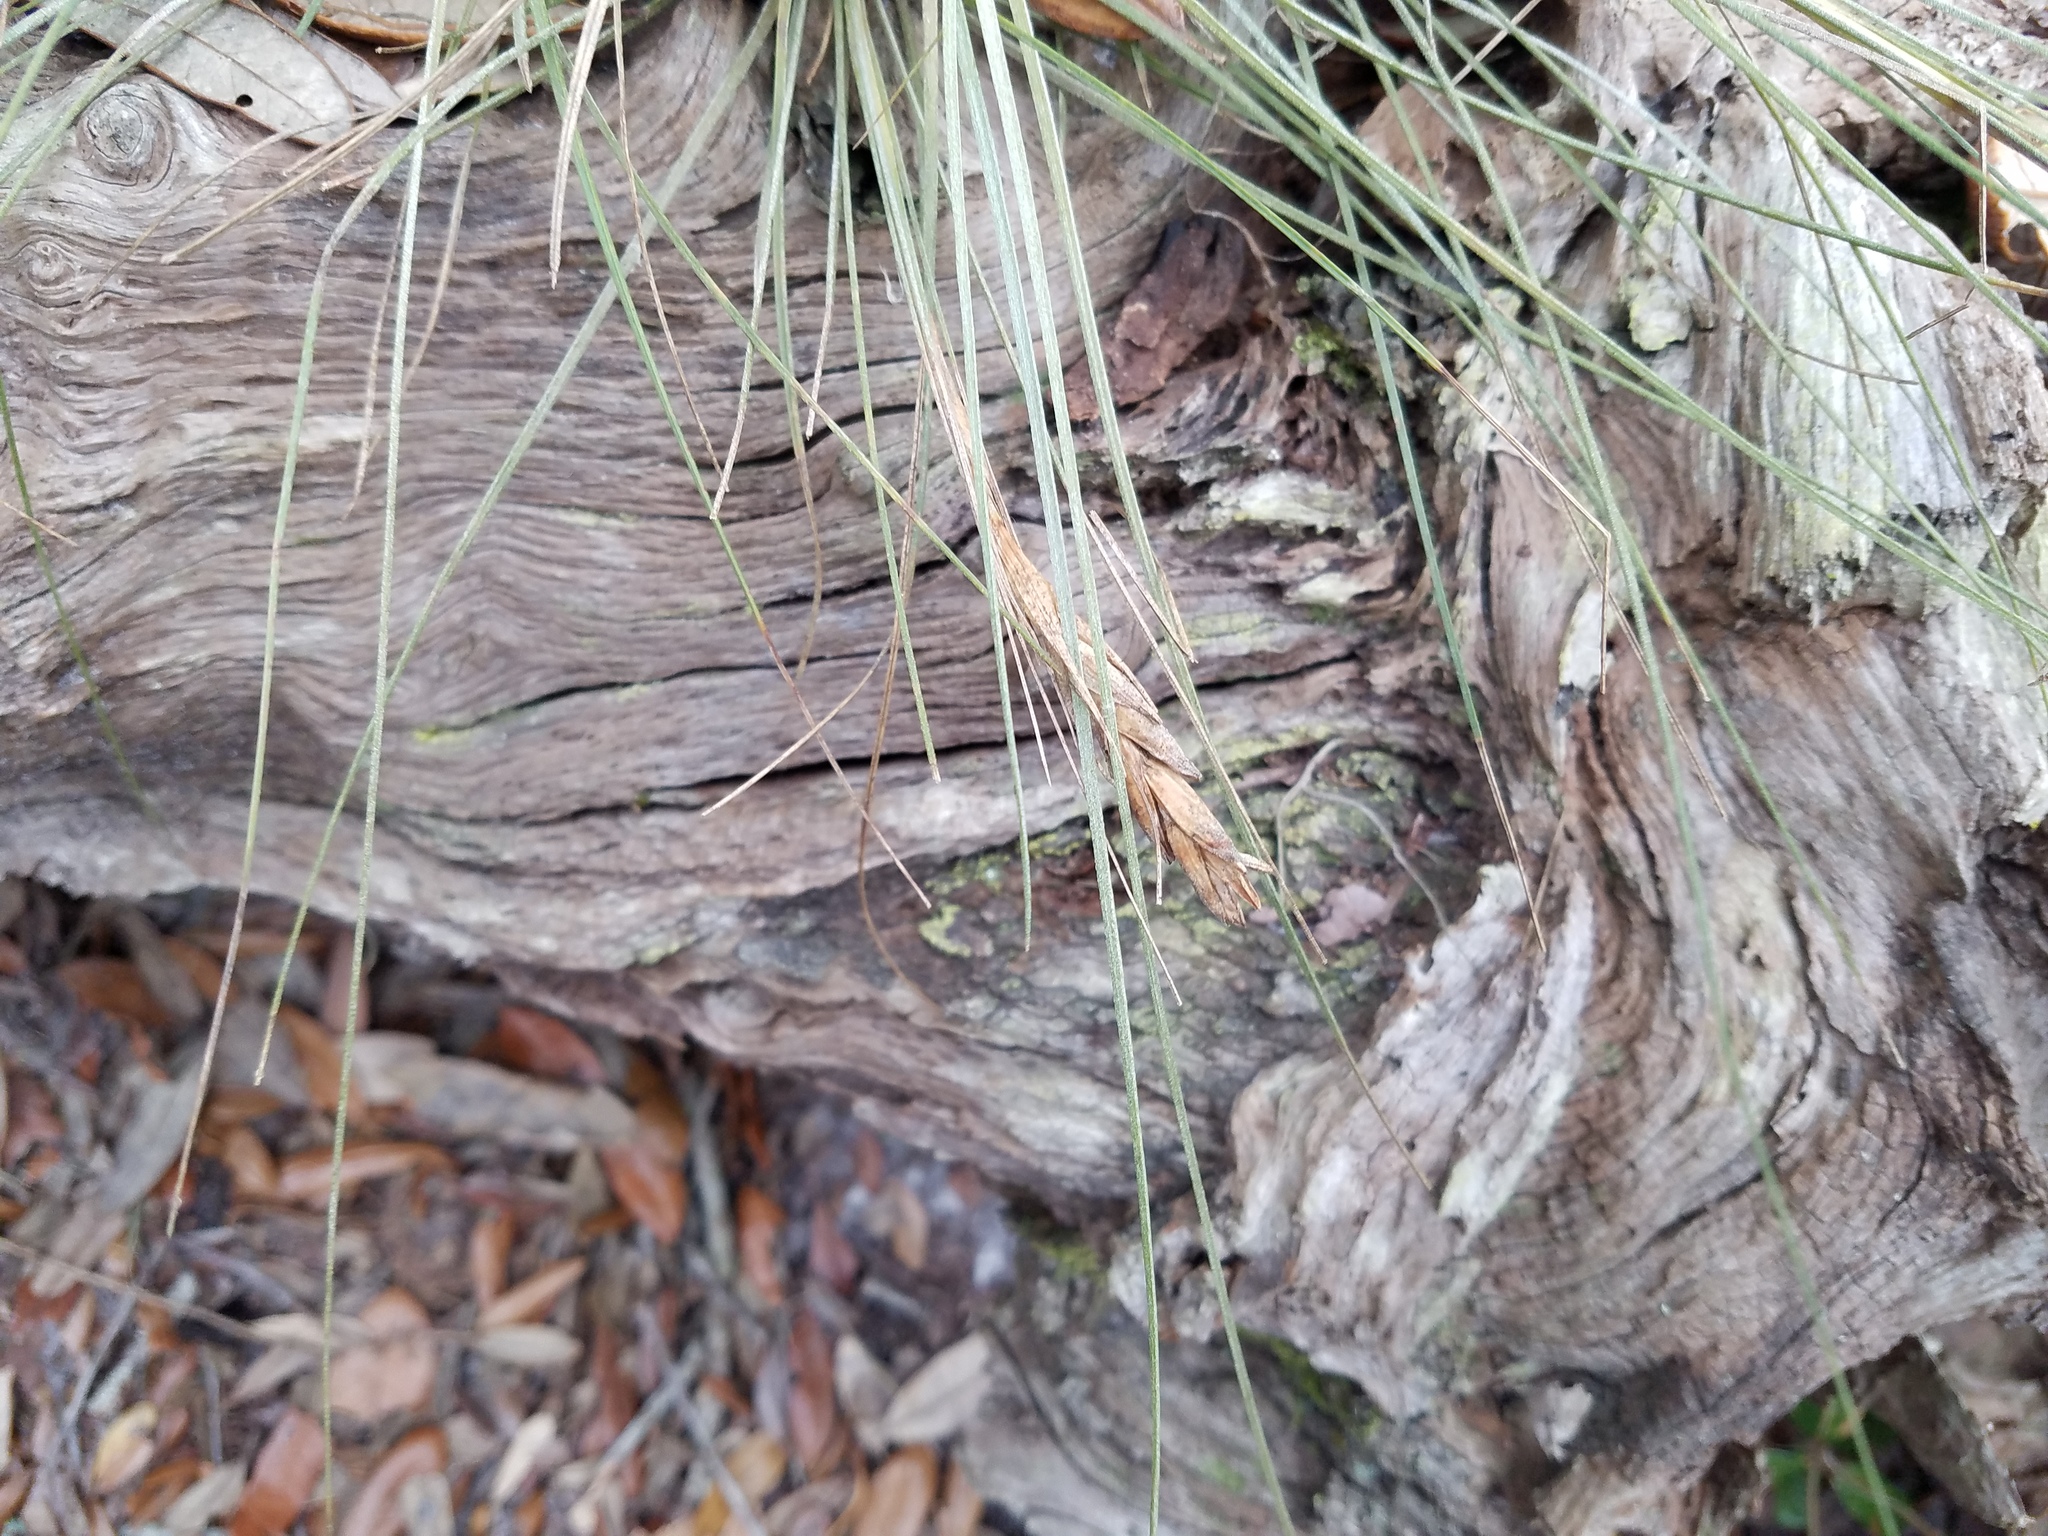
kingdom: Plantae
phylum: Tracheophyta
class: Liliopsida
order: Poales
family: Bromeliaceae
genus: Tillandsia
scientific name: Tillandsia bartramii
